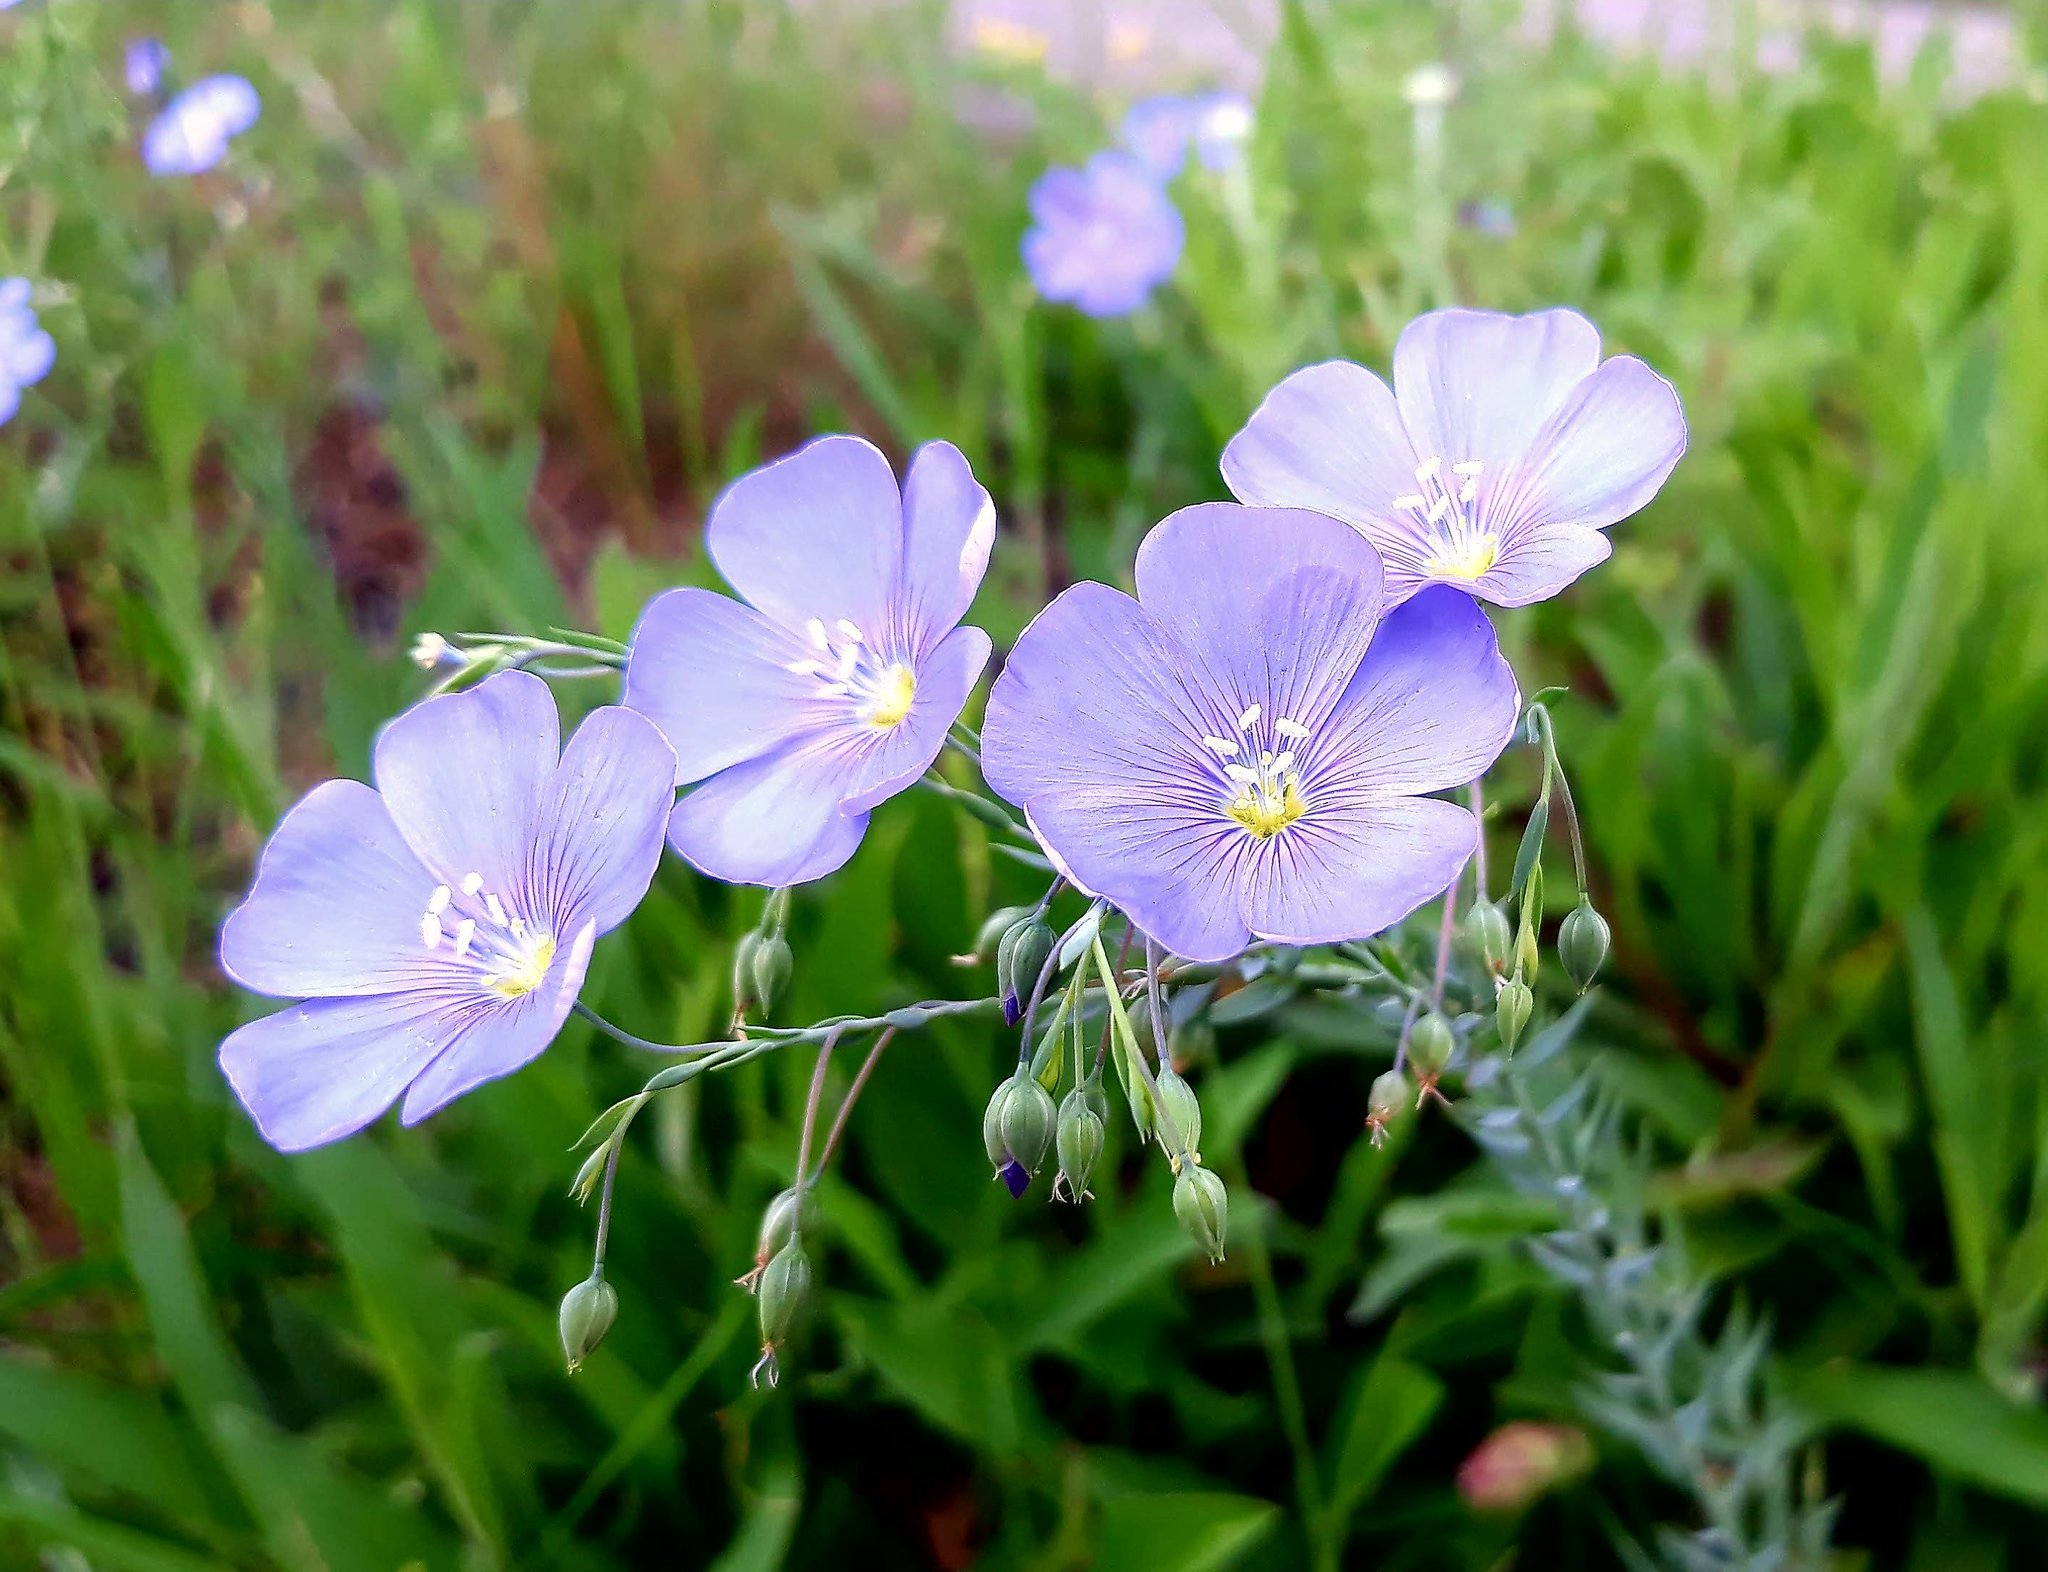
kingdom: Plantae
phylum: Tracheophyta
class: Magnoliopsida
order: Malpighiales
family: Linaceae
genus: Linum
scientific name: Linum perenne
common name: Blue flax
